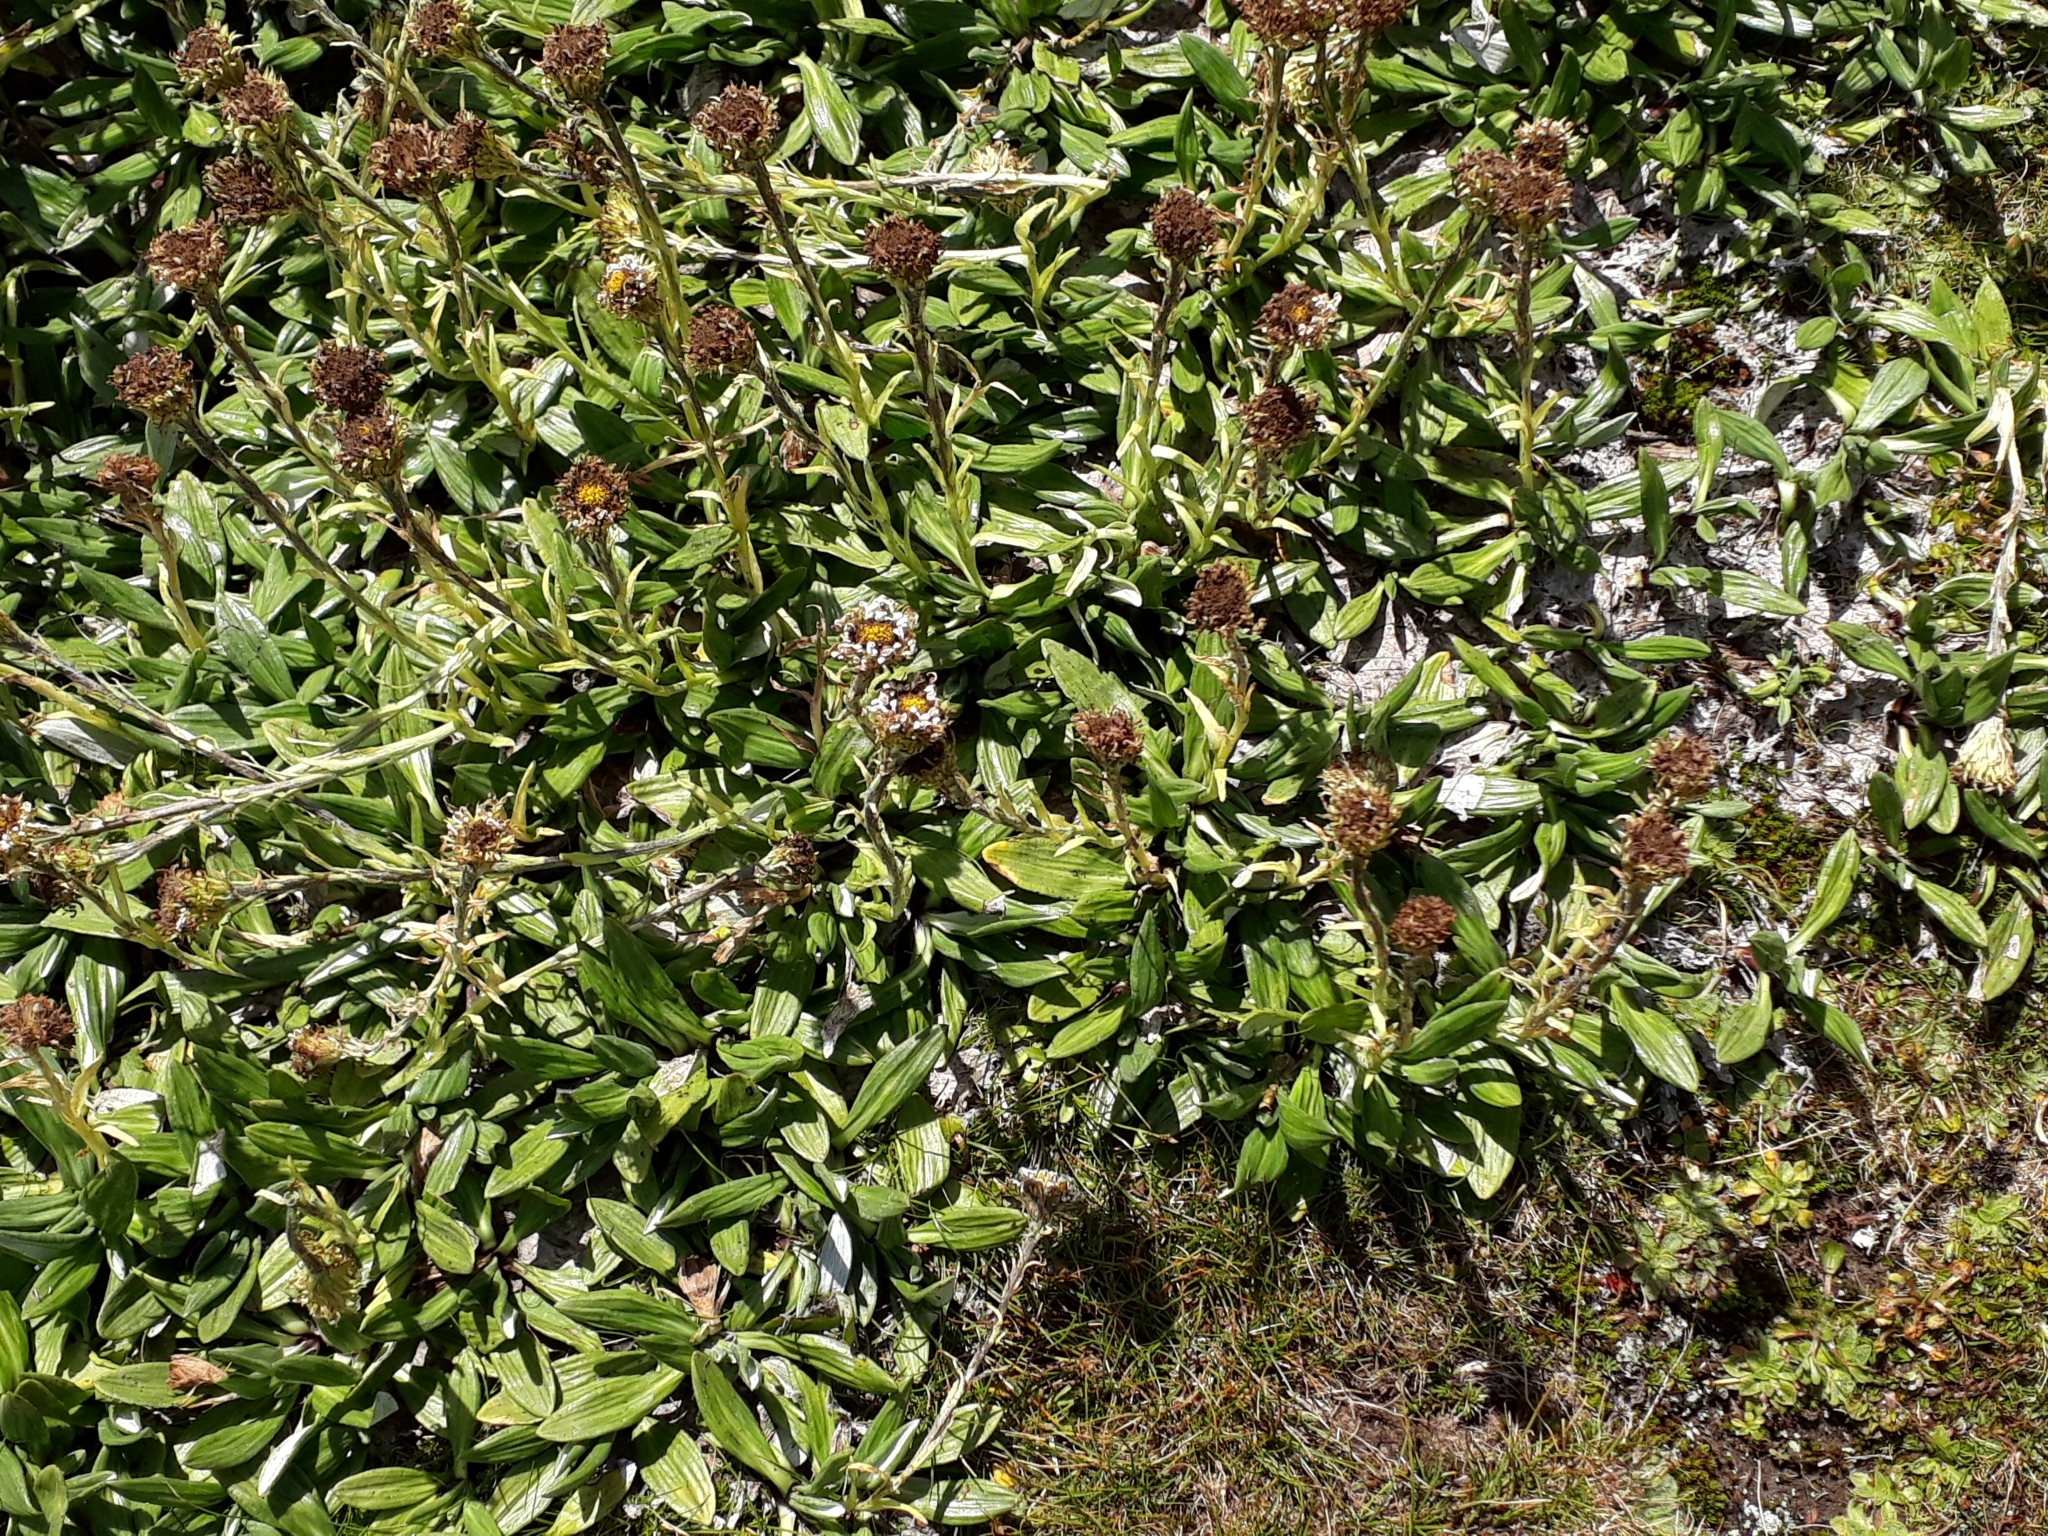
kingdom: Plantae
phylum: Tracheophyta
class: Magnoliopsida
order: Asterales
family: Asteraceae
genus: Celmisia
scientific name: Celmisia haastii
